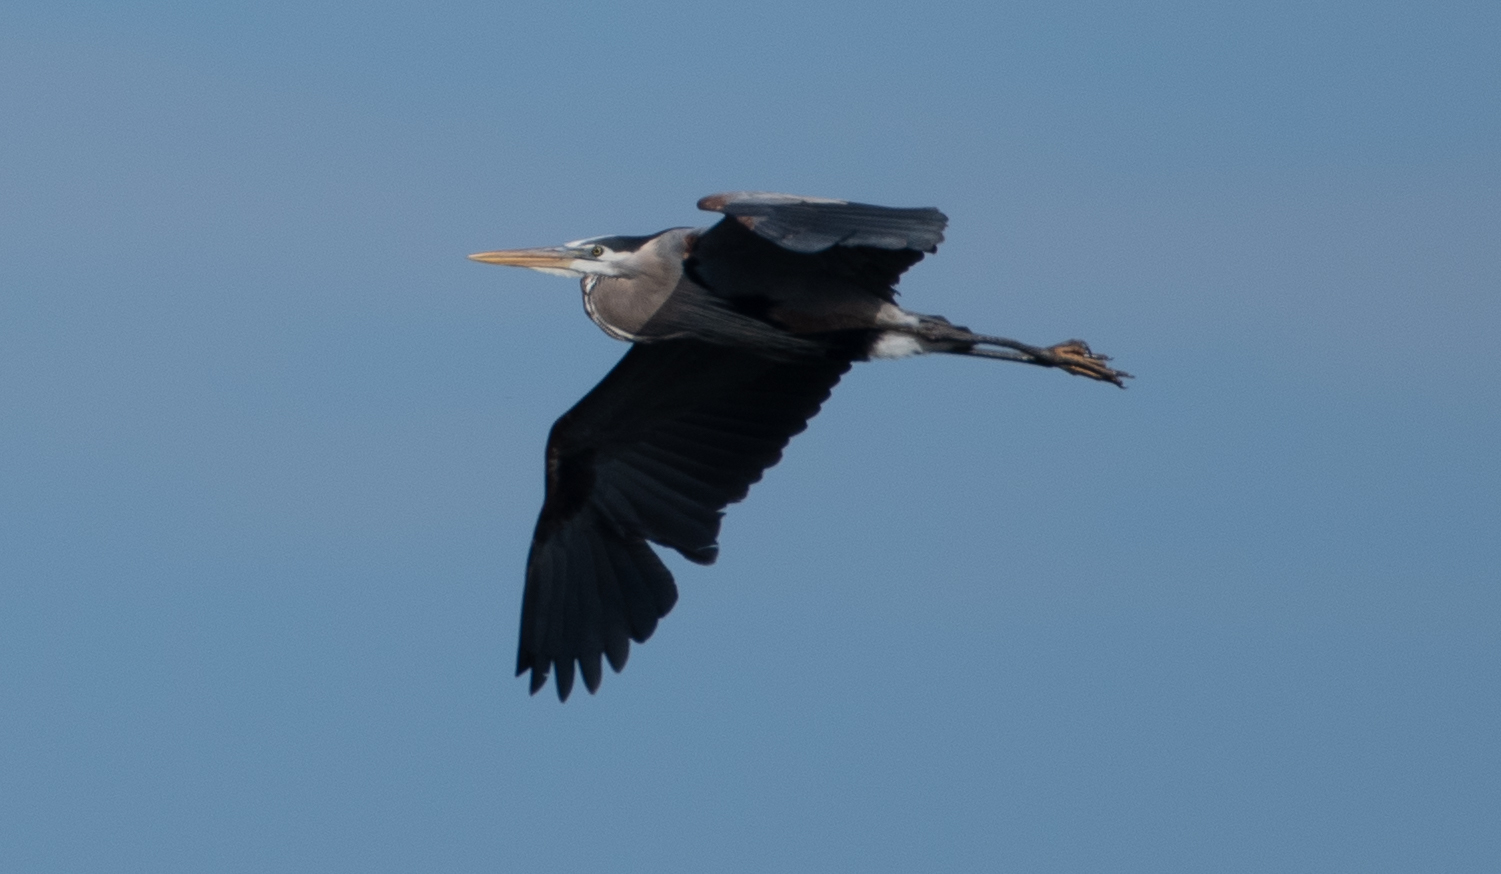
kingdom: Animalia
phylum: Chordata
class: Aves
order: Pelecaniformes
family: Ardeidae
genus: Ardea
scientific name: Ardea herodias
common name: Great blue heron
